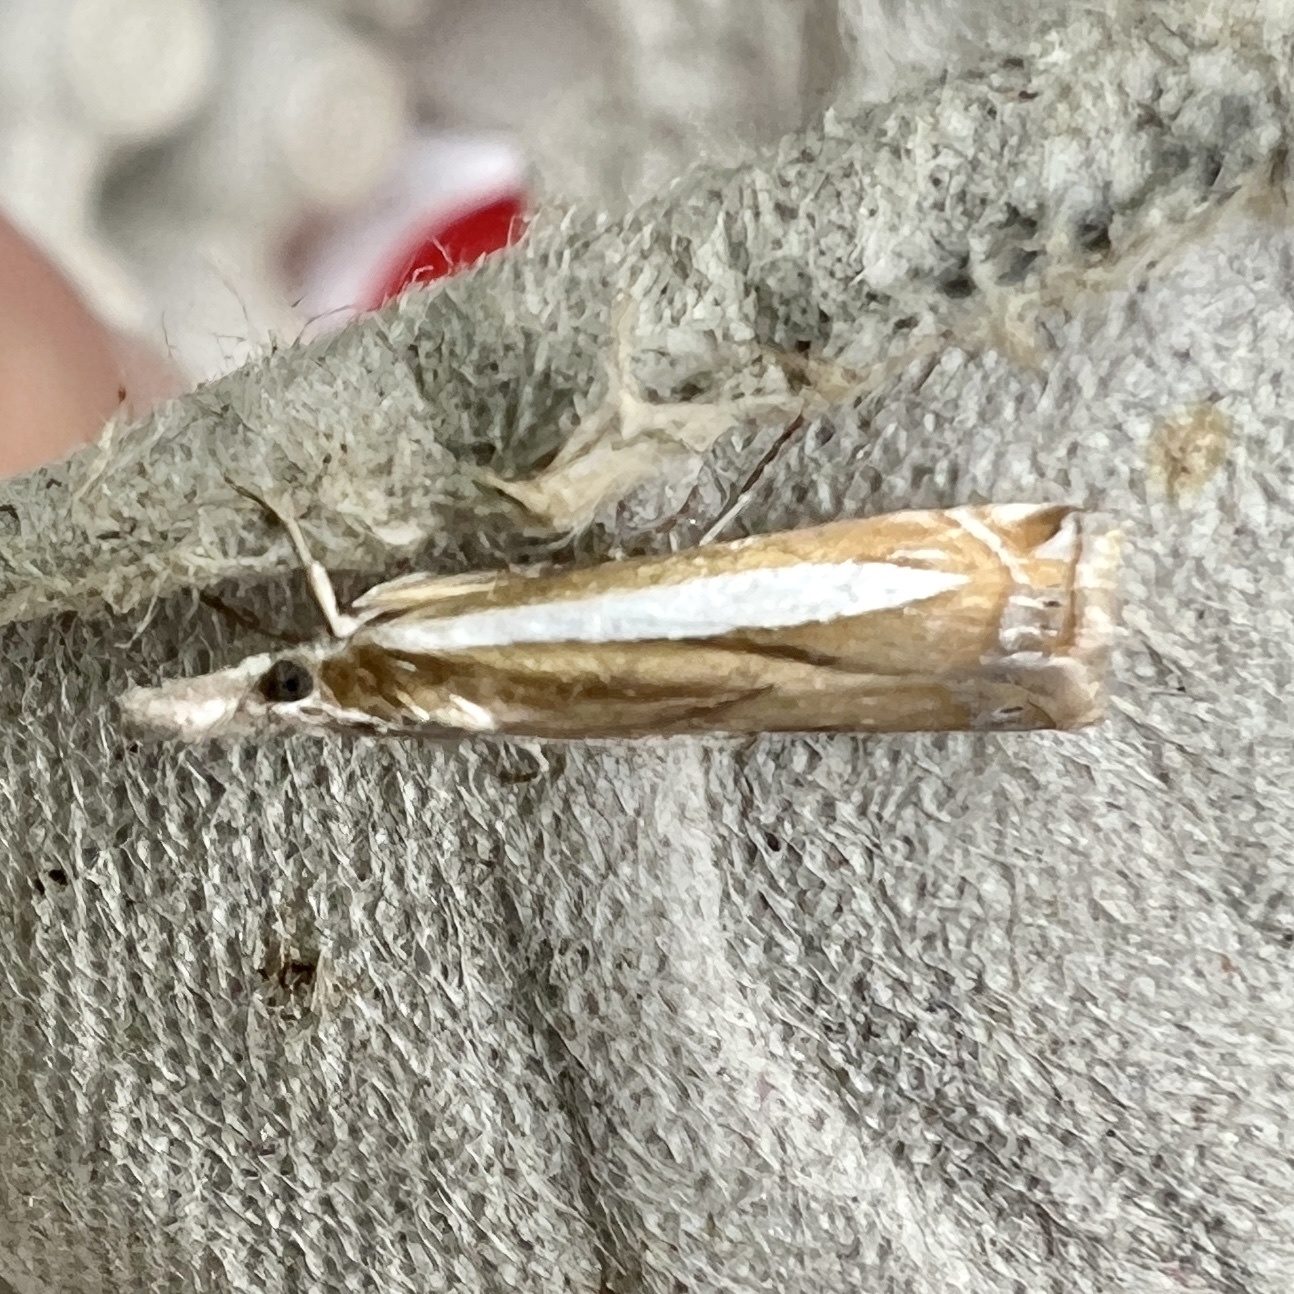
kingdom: Animalia
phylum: Arthropoda
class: Insecta
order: Lepidoptera
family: Crambidae
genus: Crambus
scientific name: Crambus praefectellus
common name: Common grass-veneer
